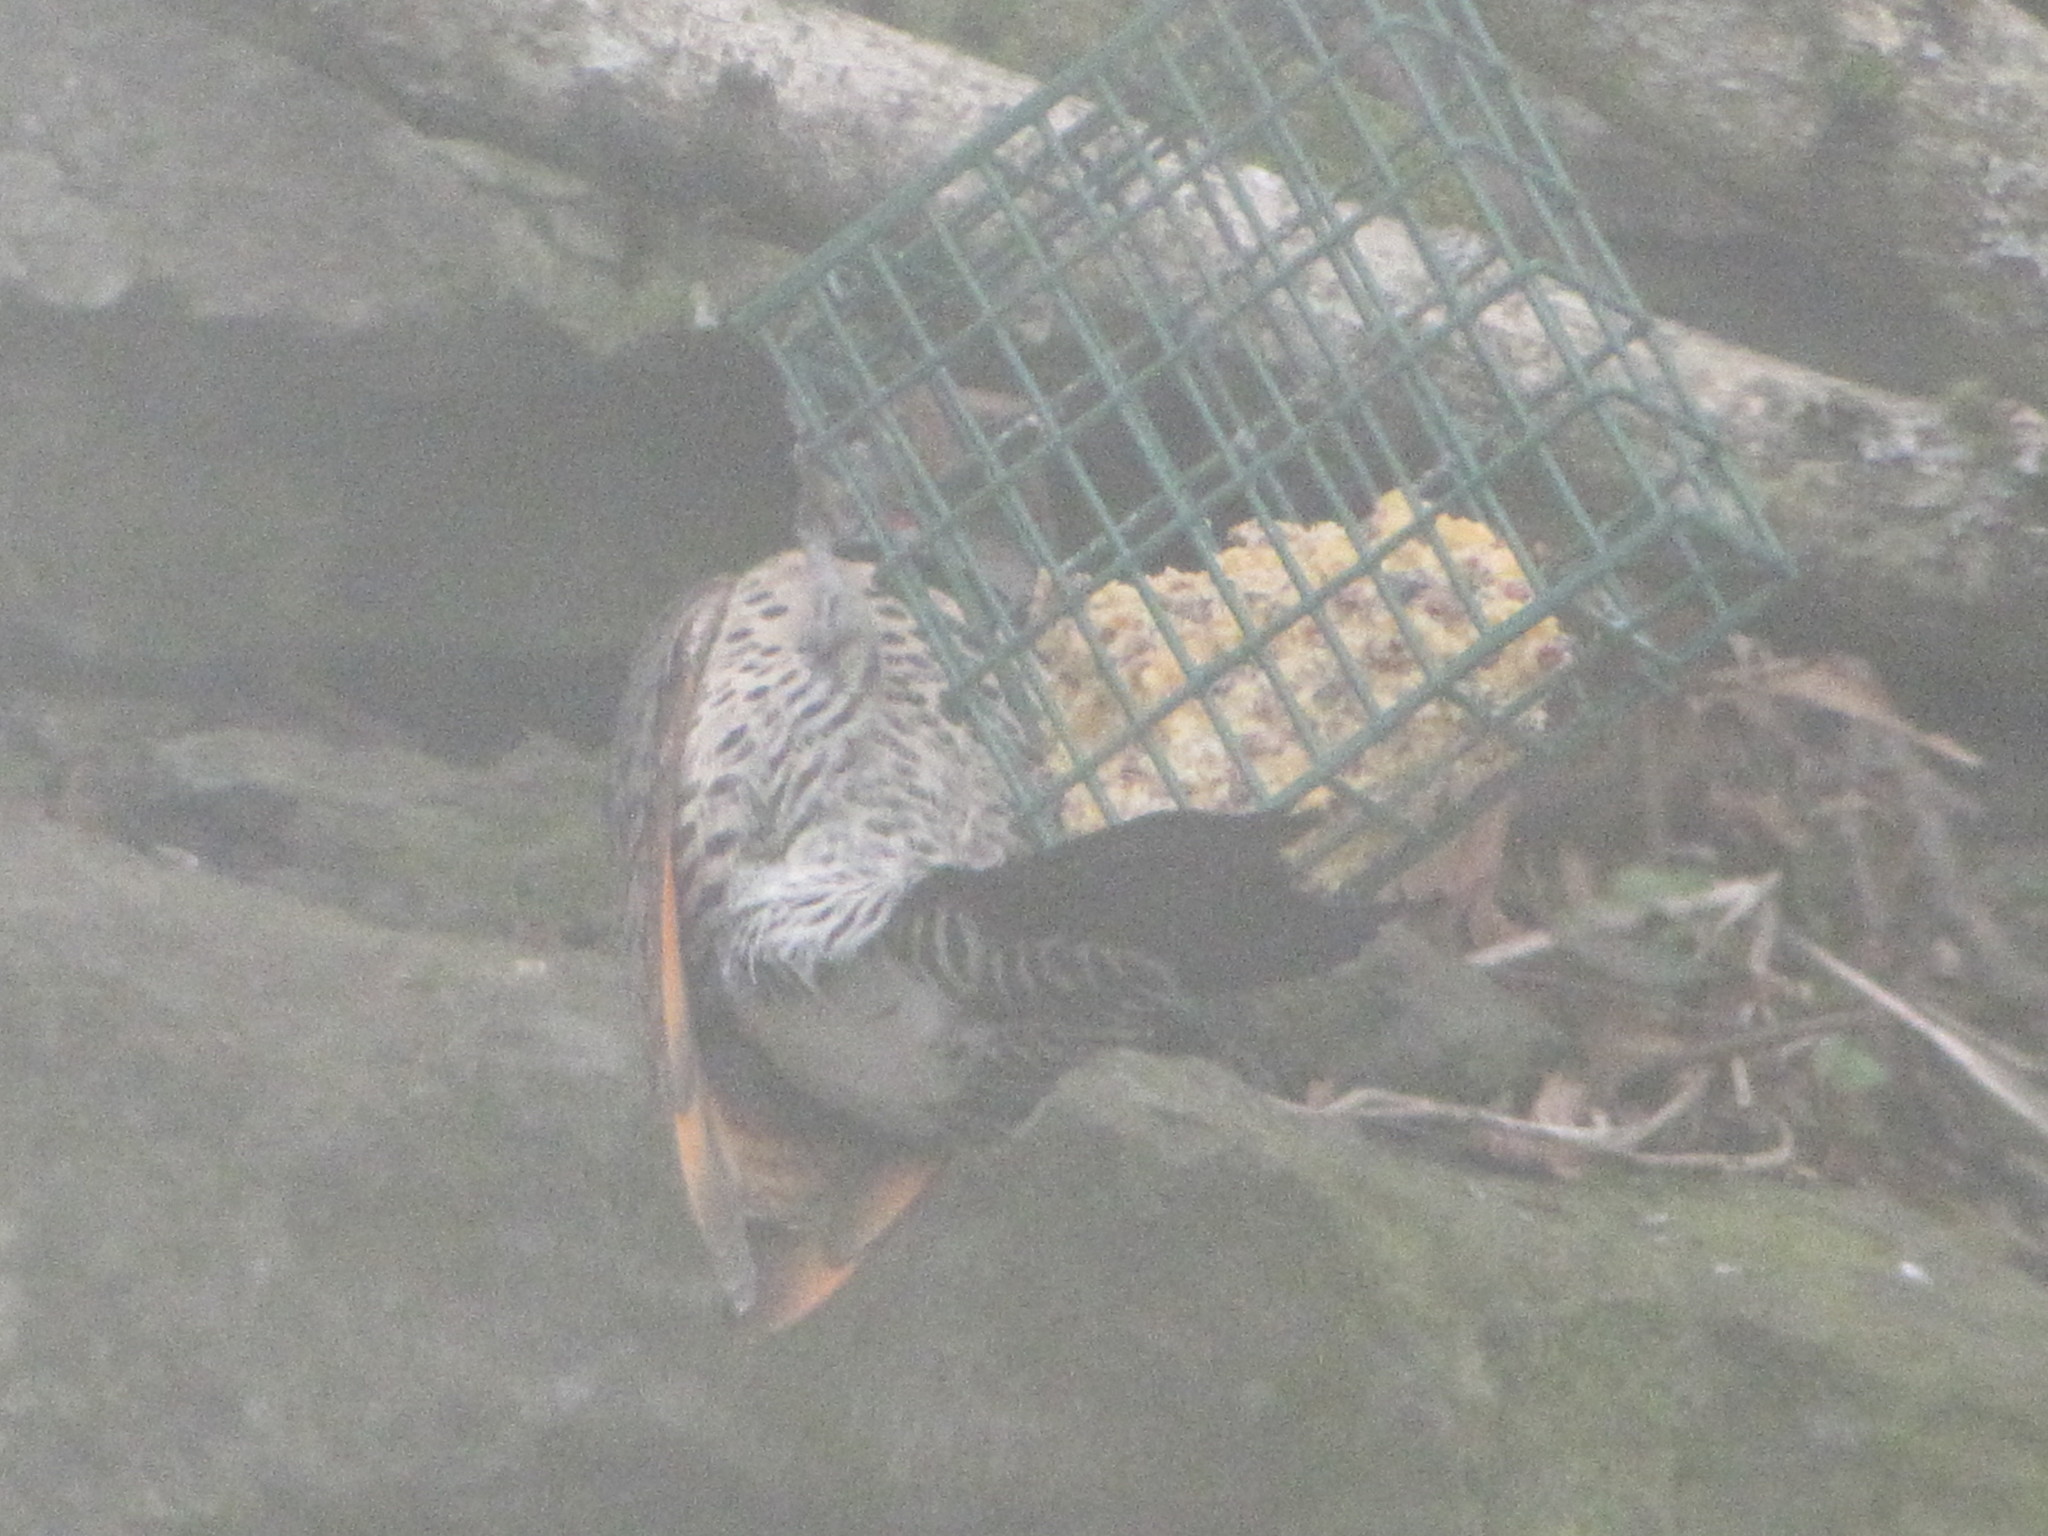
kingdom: Animalia
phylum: Chordata
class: Aves
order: Piciformes
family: Picidae
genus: Colaptes
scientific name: Colaptes auratus
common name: Northern flicker
